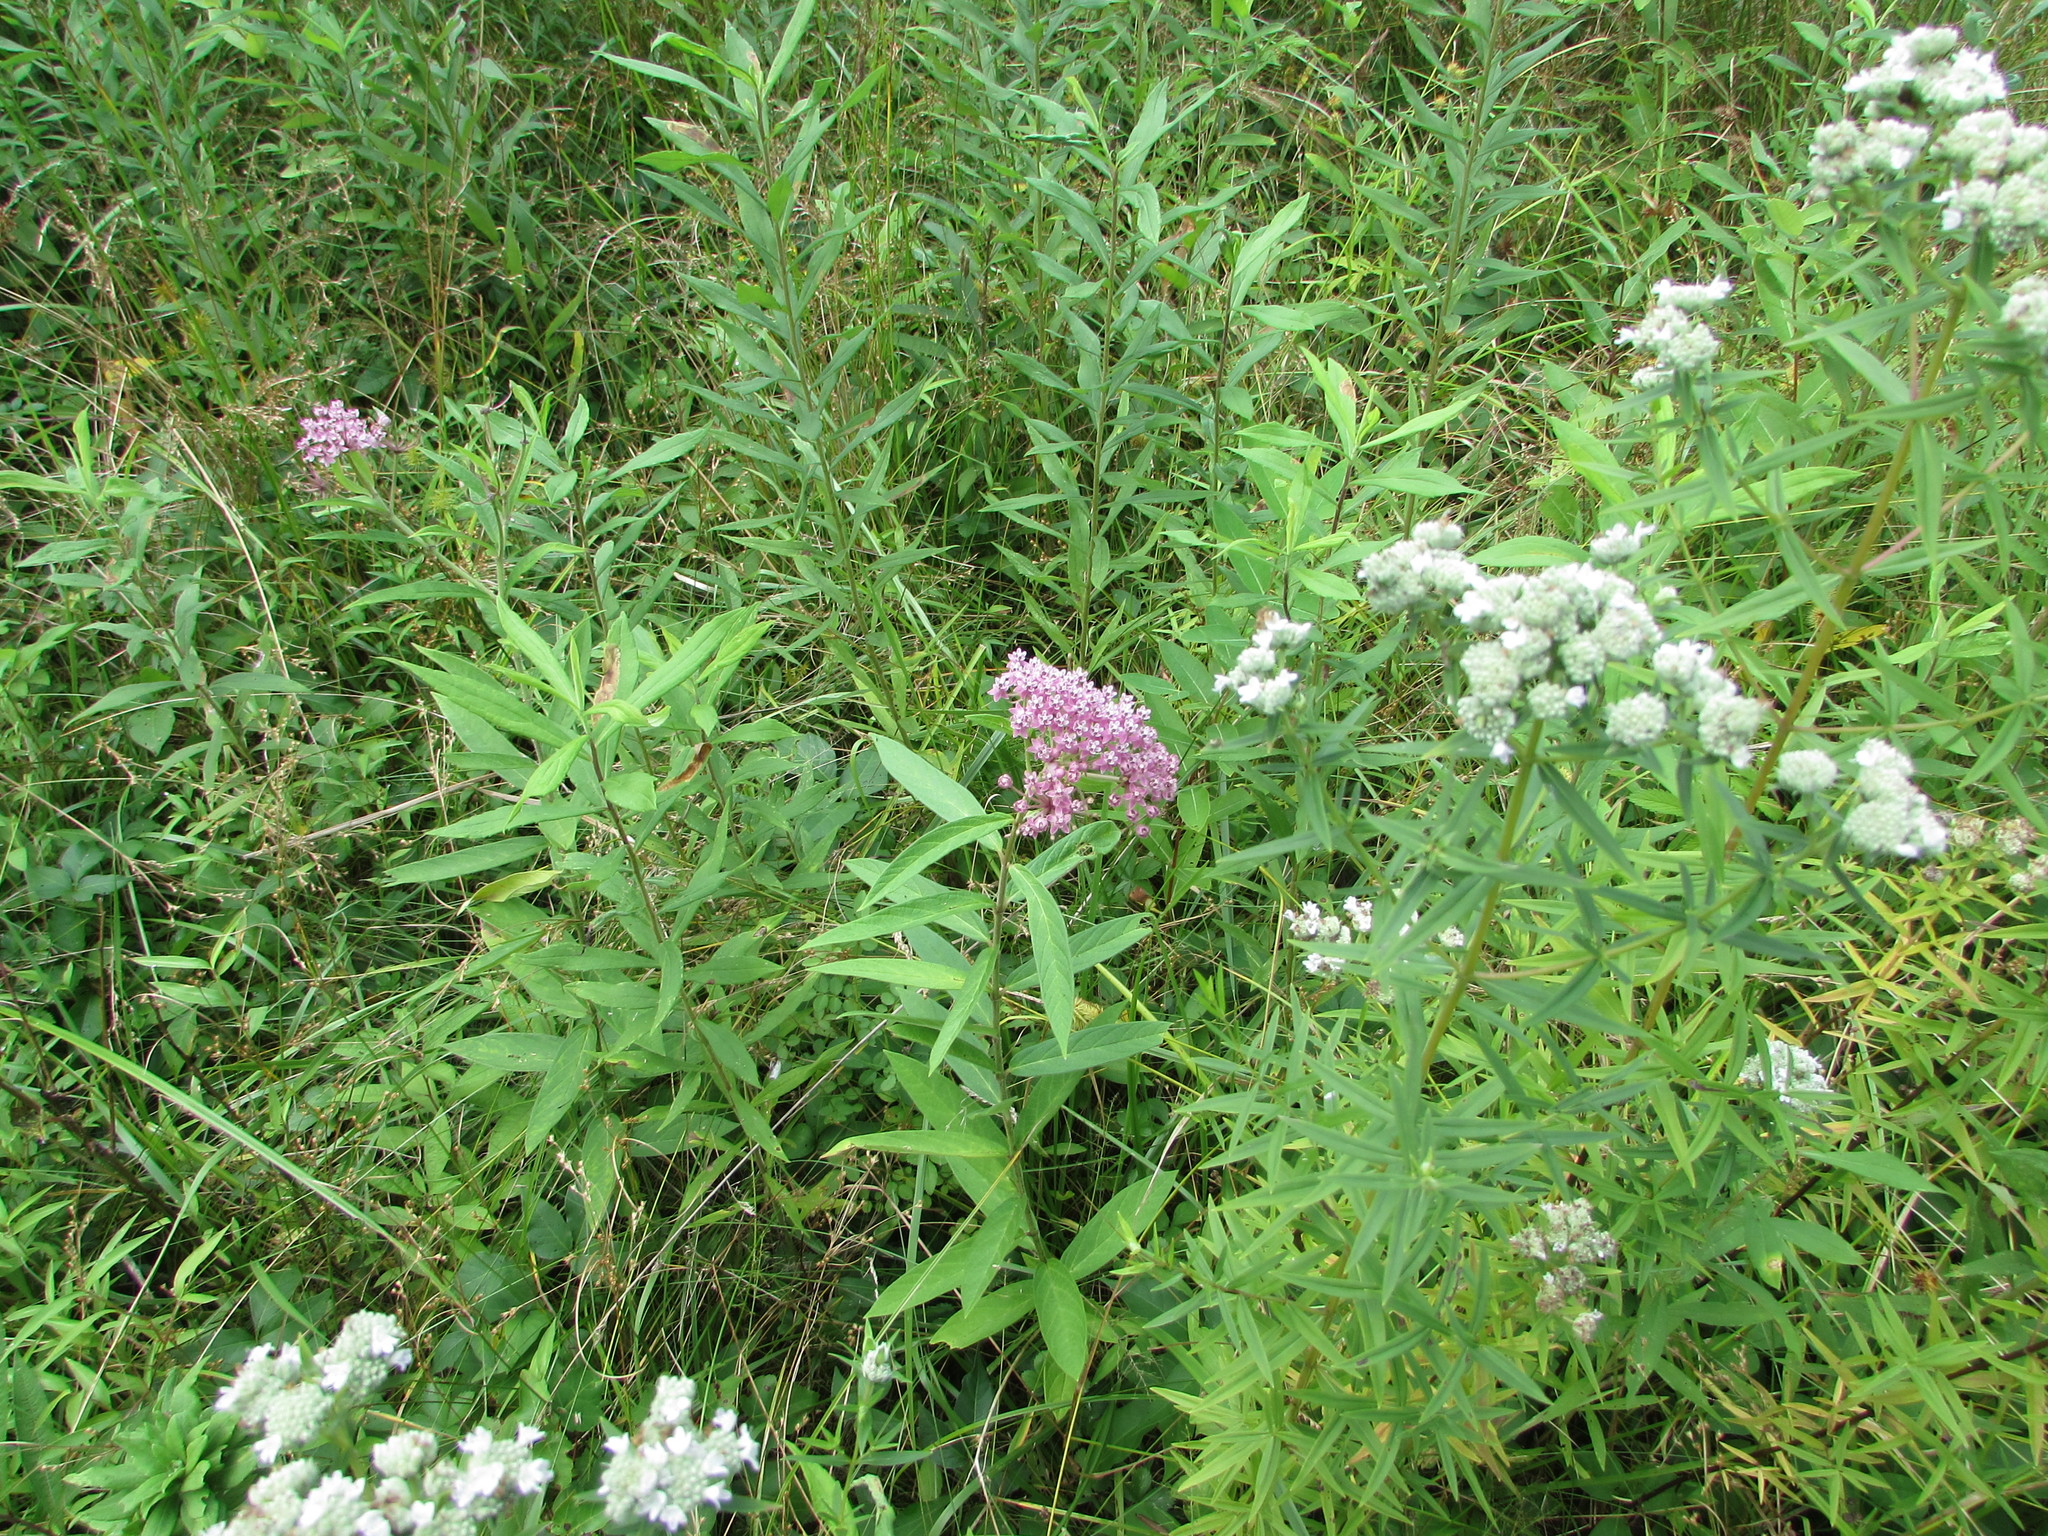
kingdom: Plantae
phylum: Tracheophyta
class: Magnoliopsida
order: Gentianales
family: Apocynaceae
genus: Asclepias
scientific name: Asclepias incarnata
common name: Swamp milkweed
